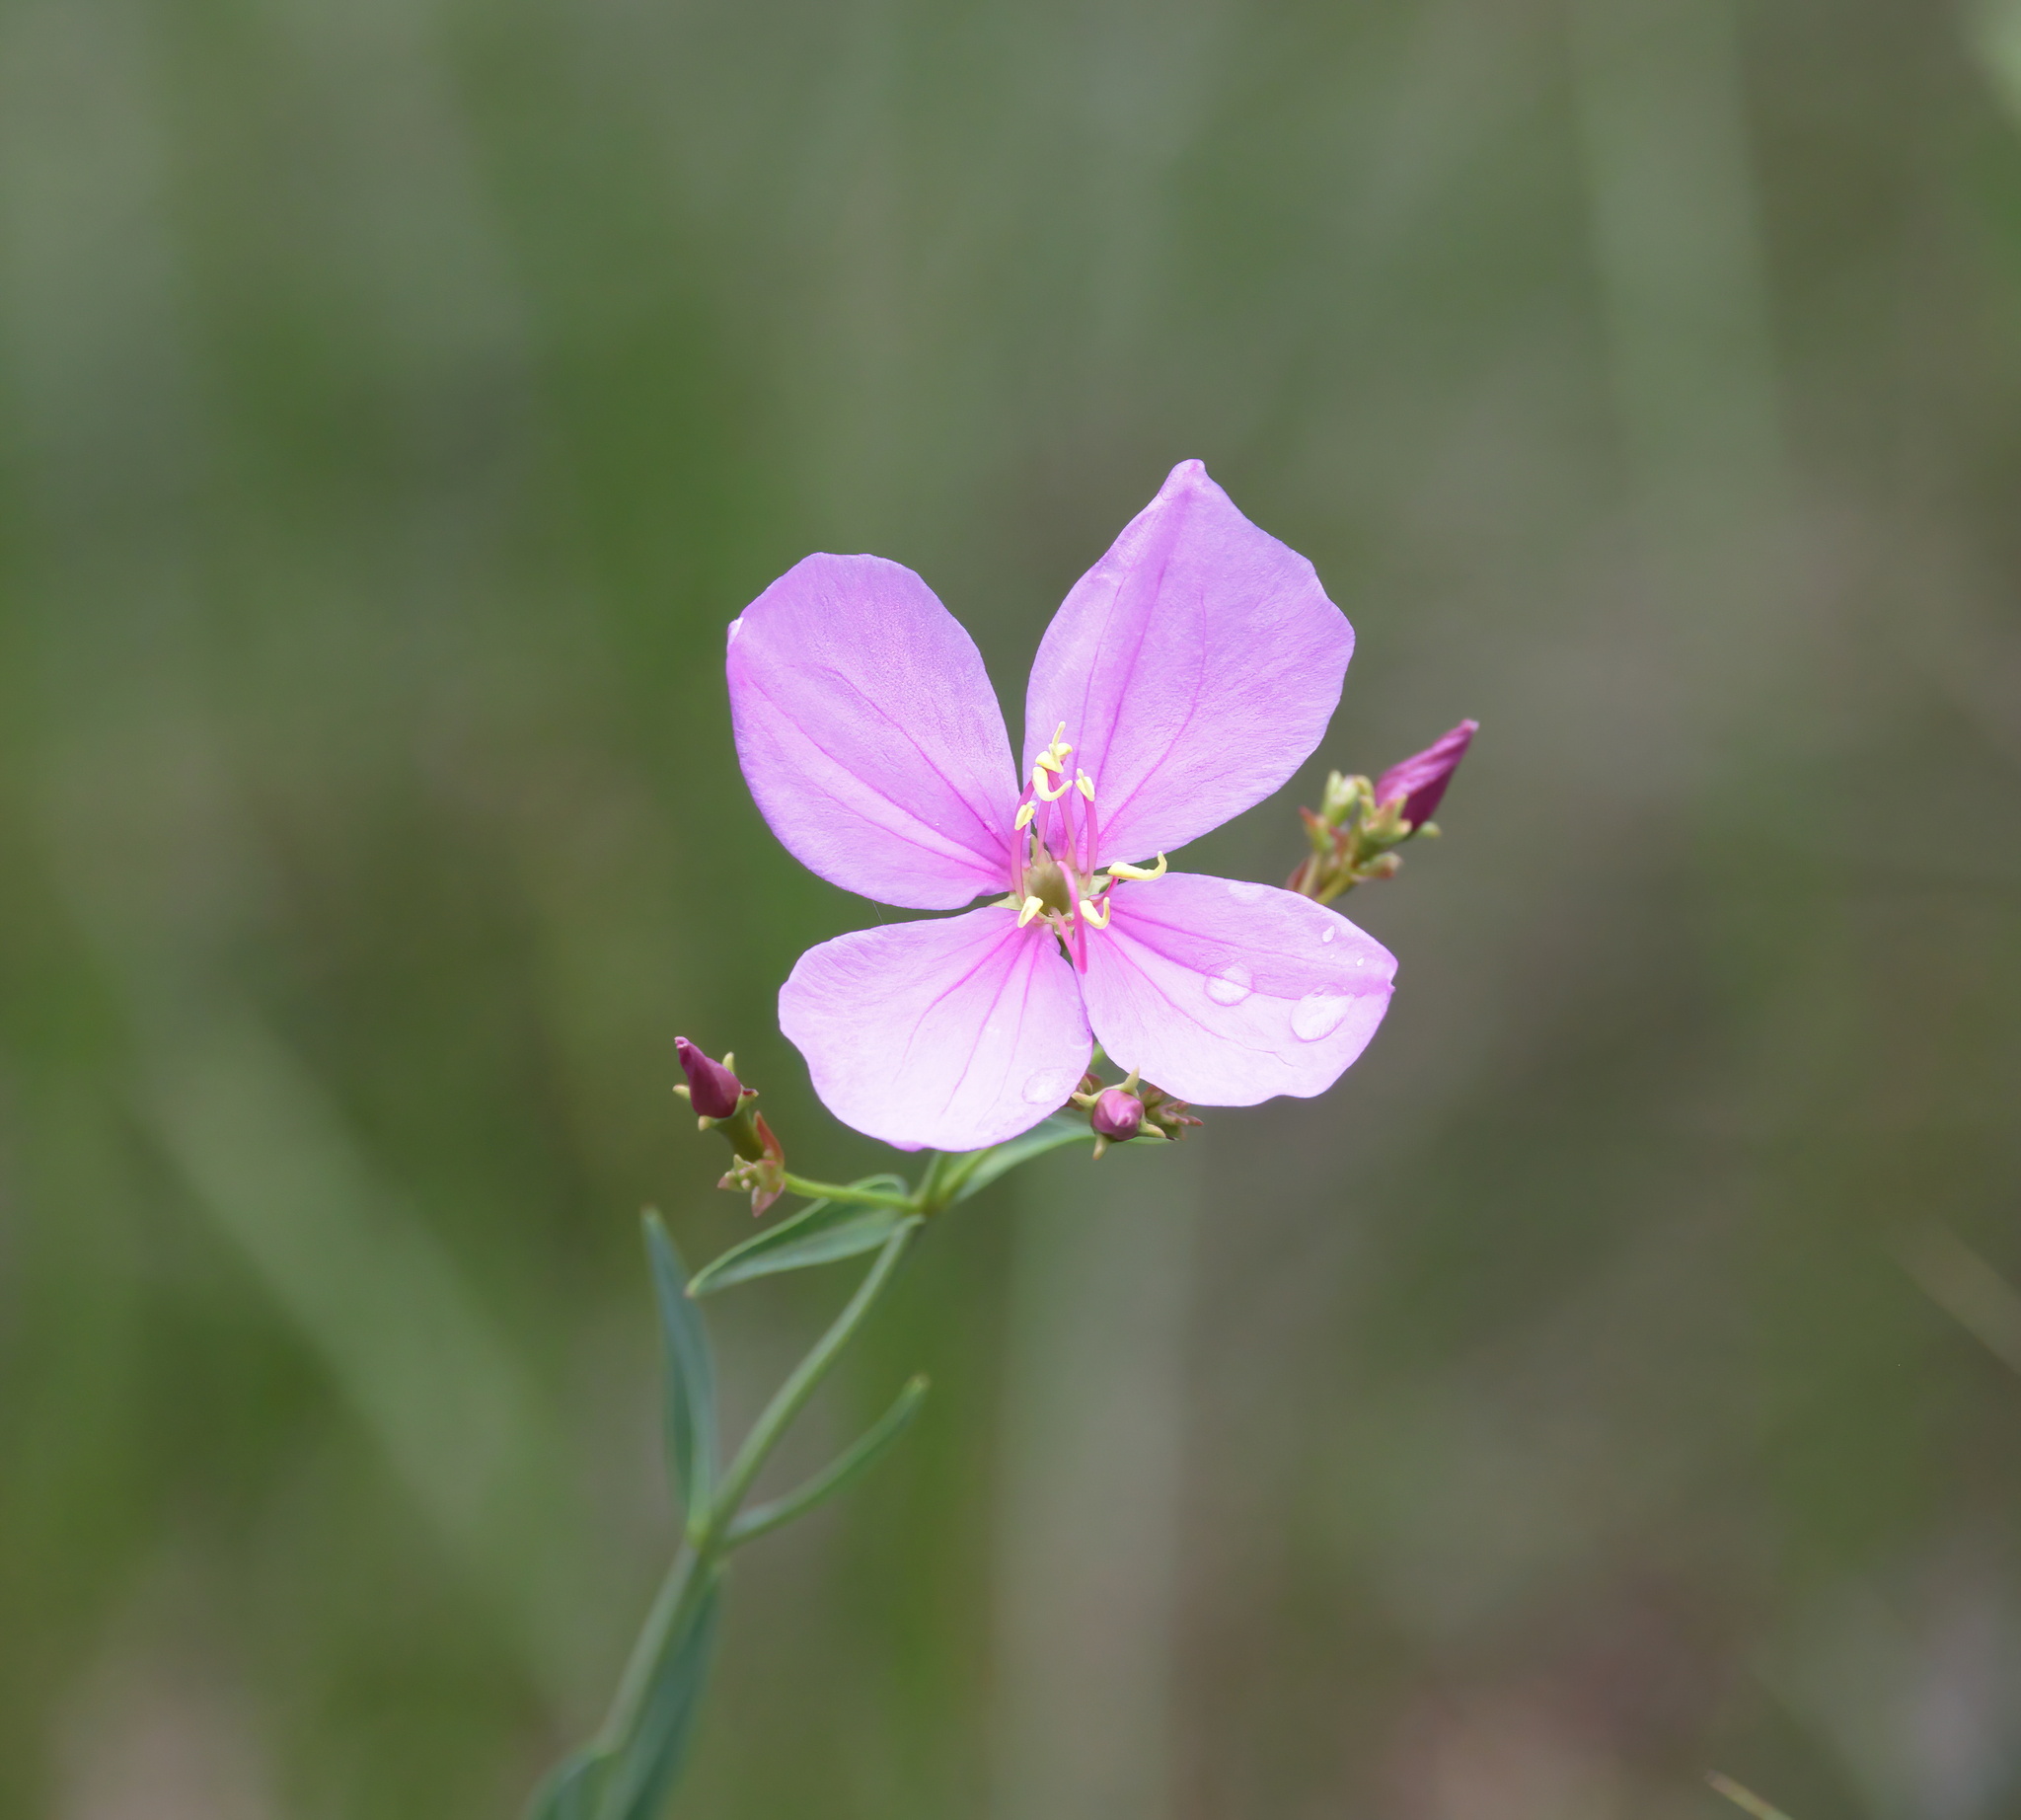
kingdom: Plantae
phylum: Tracheophyta
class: Magnoliopsida
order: Myrtales
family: Melastomataceae
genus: Rhexia
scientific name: Rhexia alifanus
